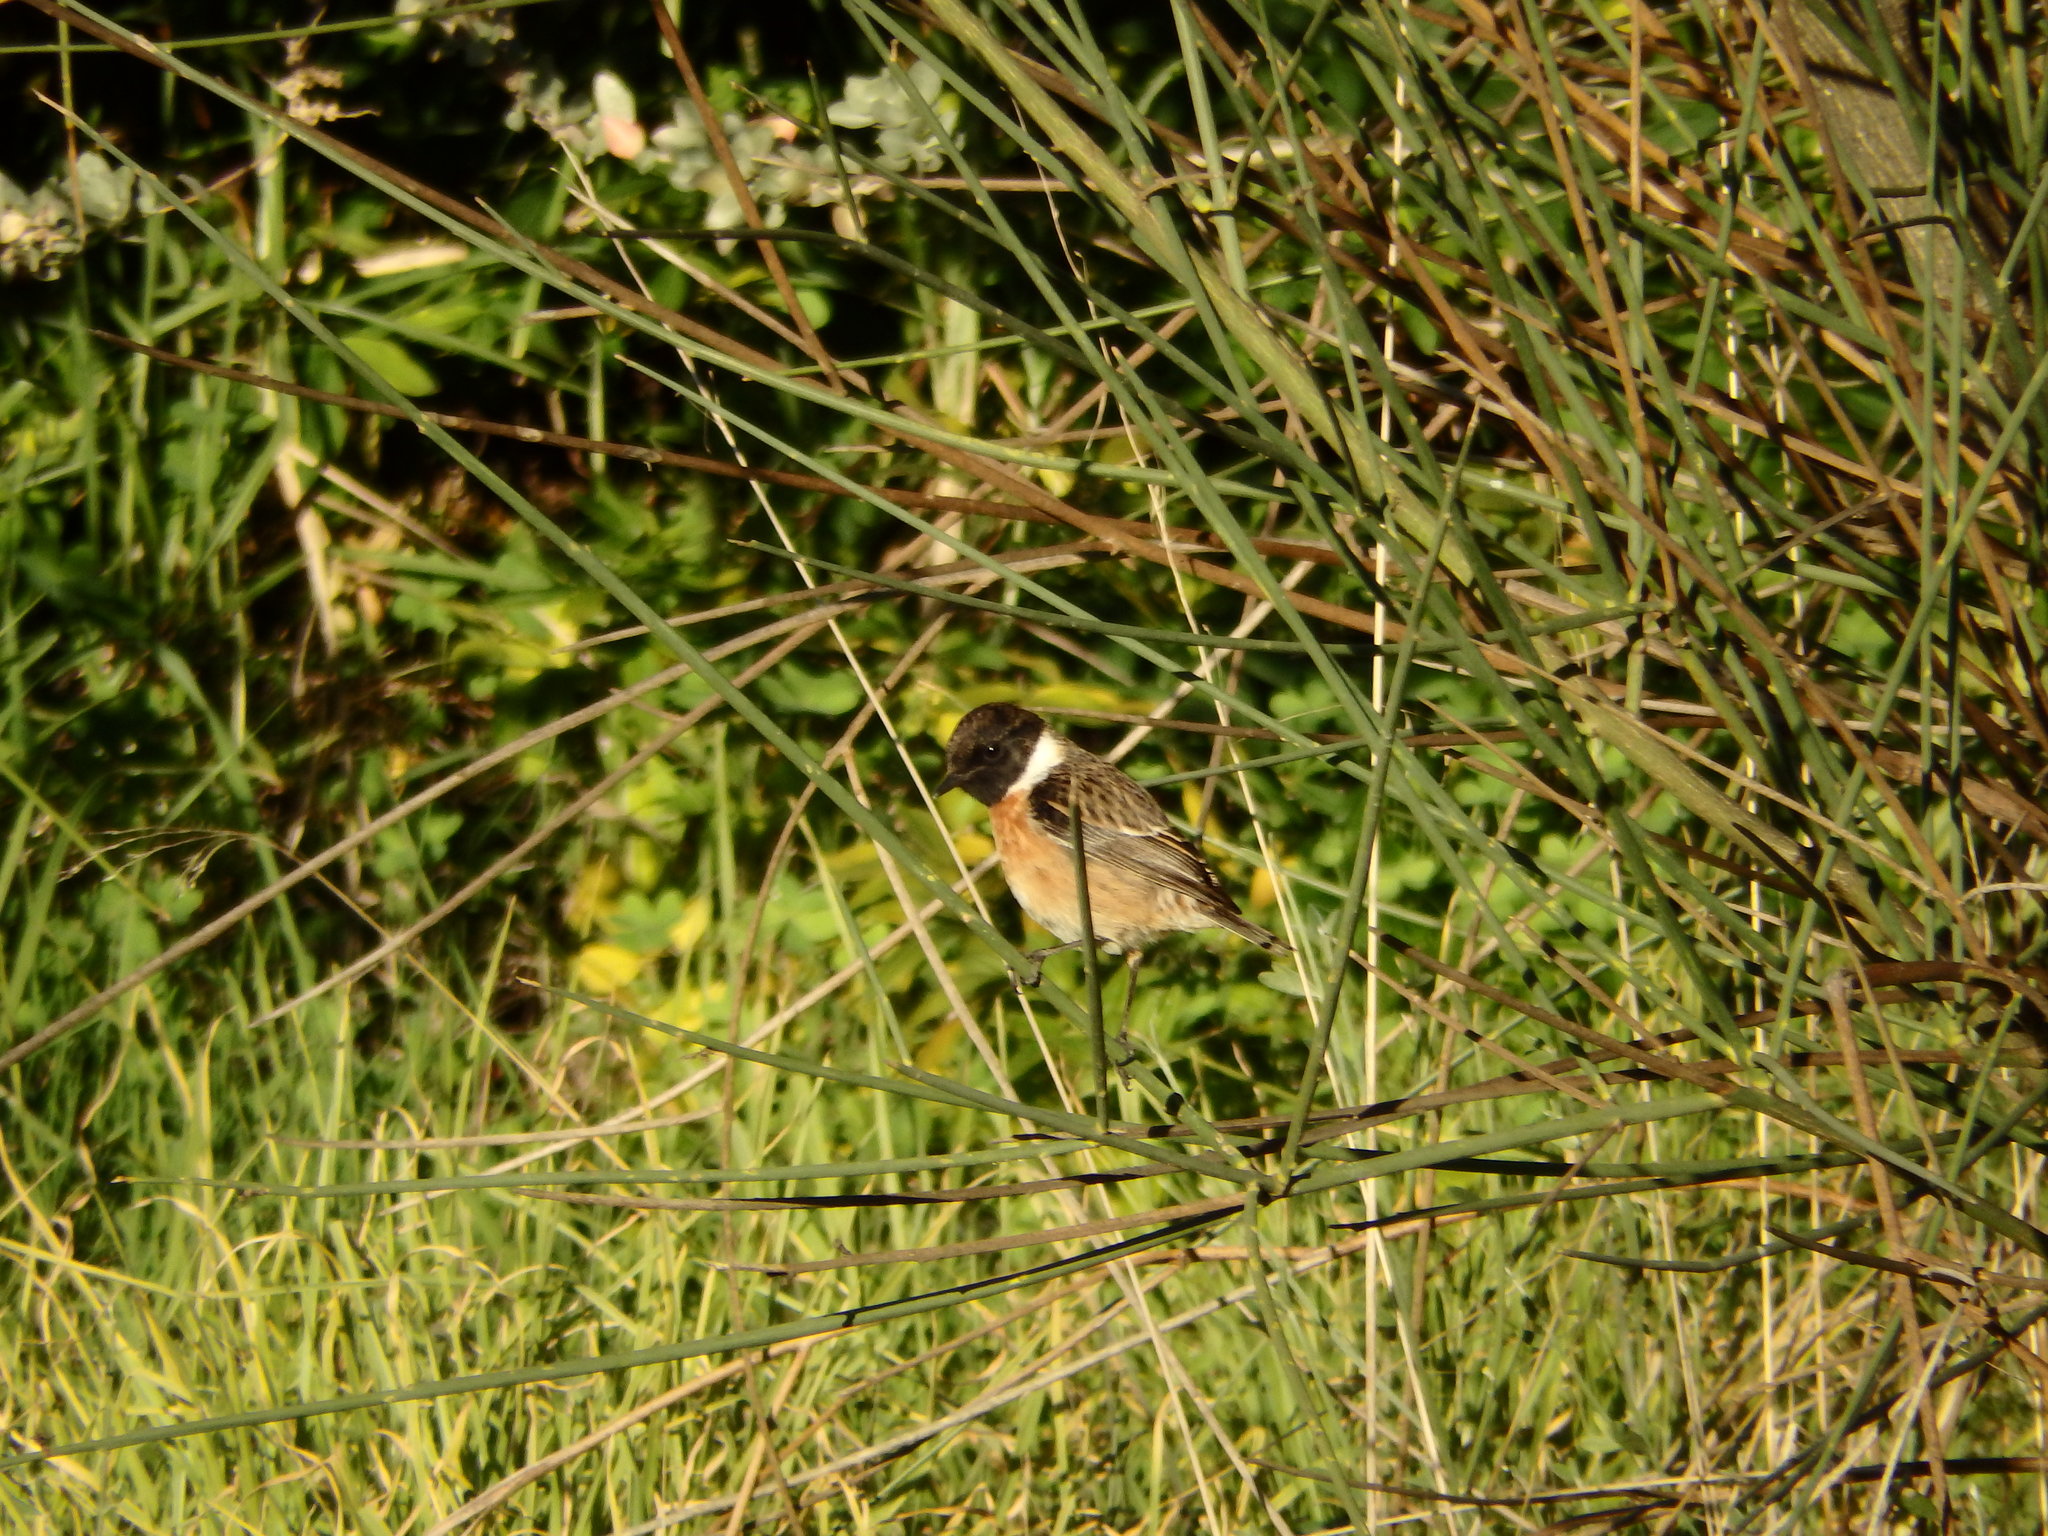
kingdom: Animalia
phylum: Chordata
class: Aves
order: Passeriformes
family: Muscicapidae
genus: Saxicola
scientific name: Saxicola rubicola
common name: European stonechat
